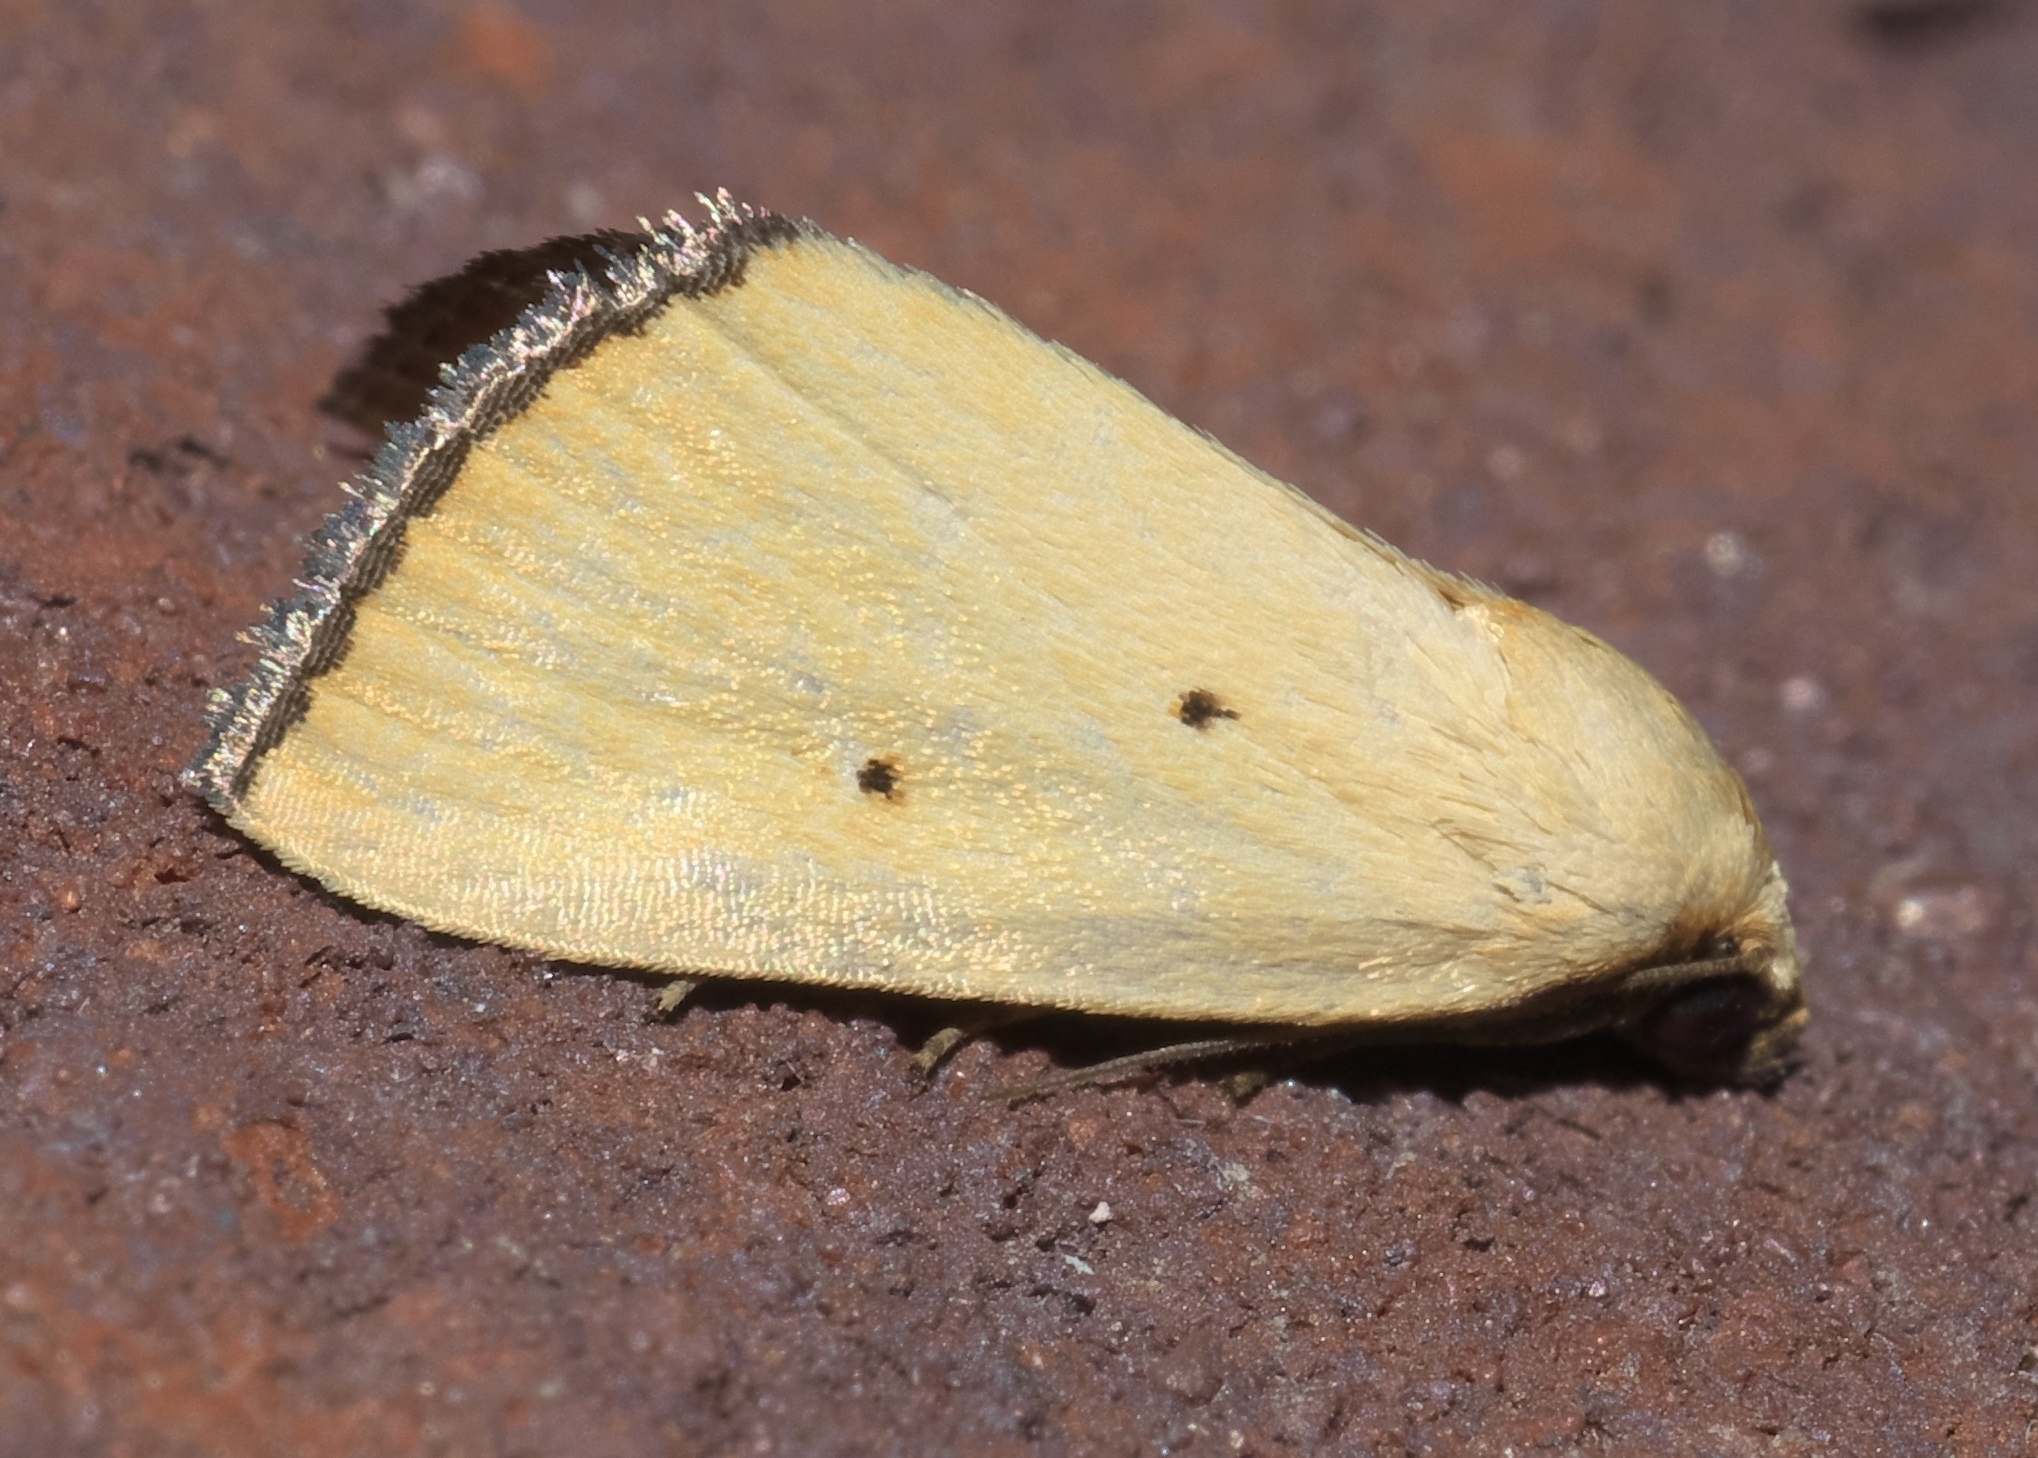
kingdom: Animalia
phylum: Arthropoda
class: Insecta
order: Lepidoptera
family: Noctuidae
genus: Marimatha
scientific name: Marimatha nigrofimbria
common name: Black-bordered lemon moth
